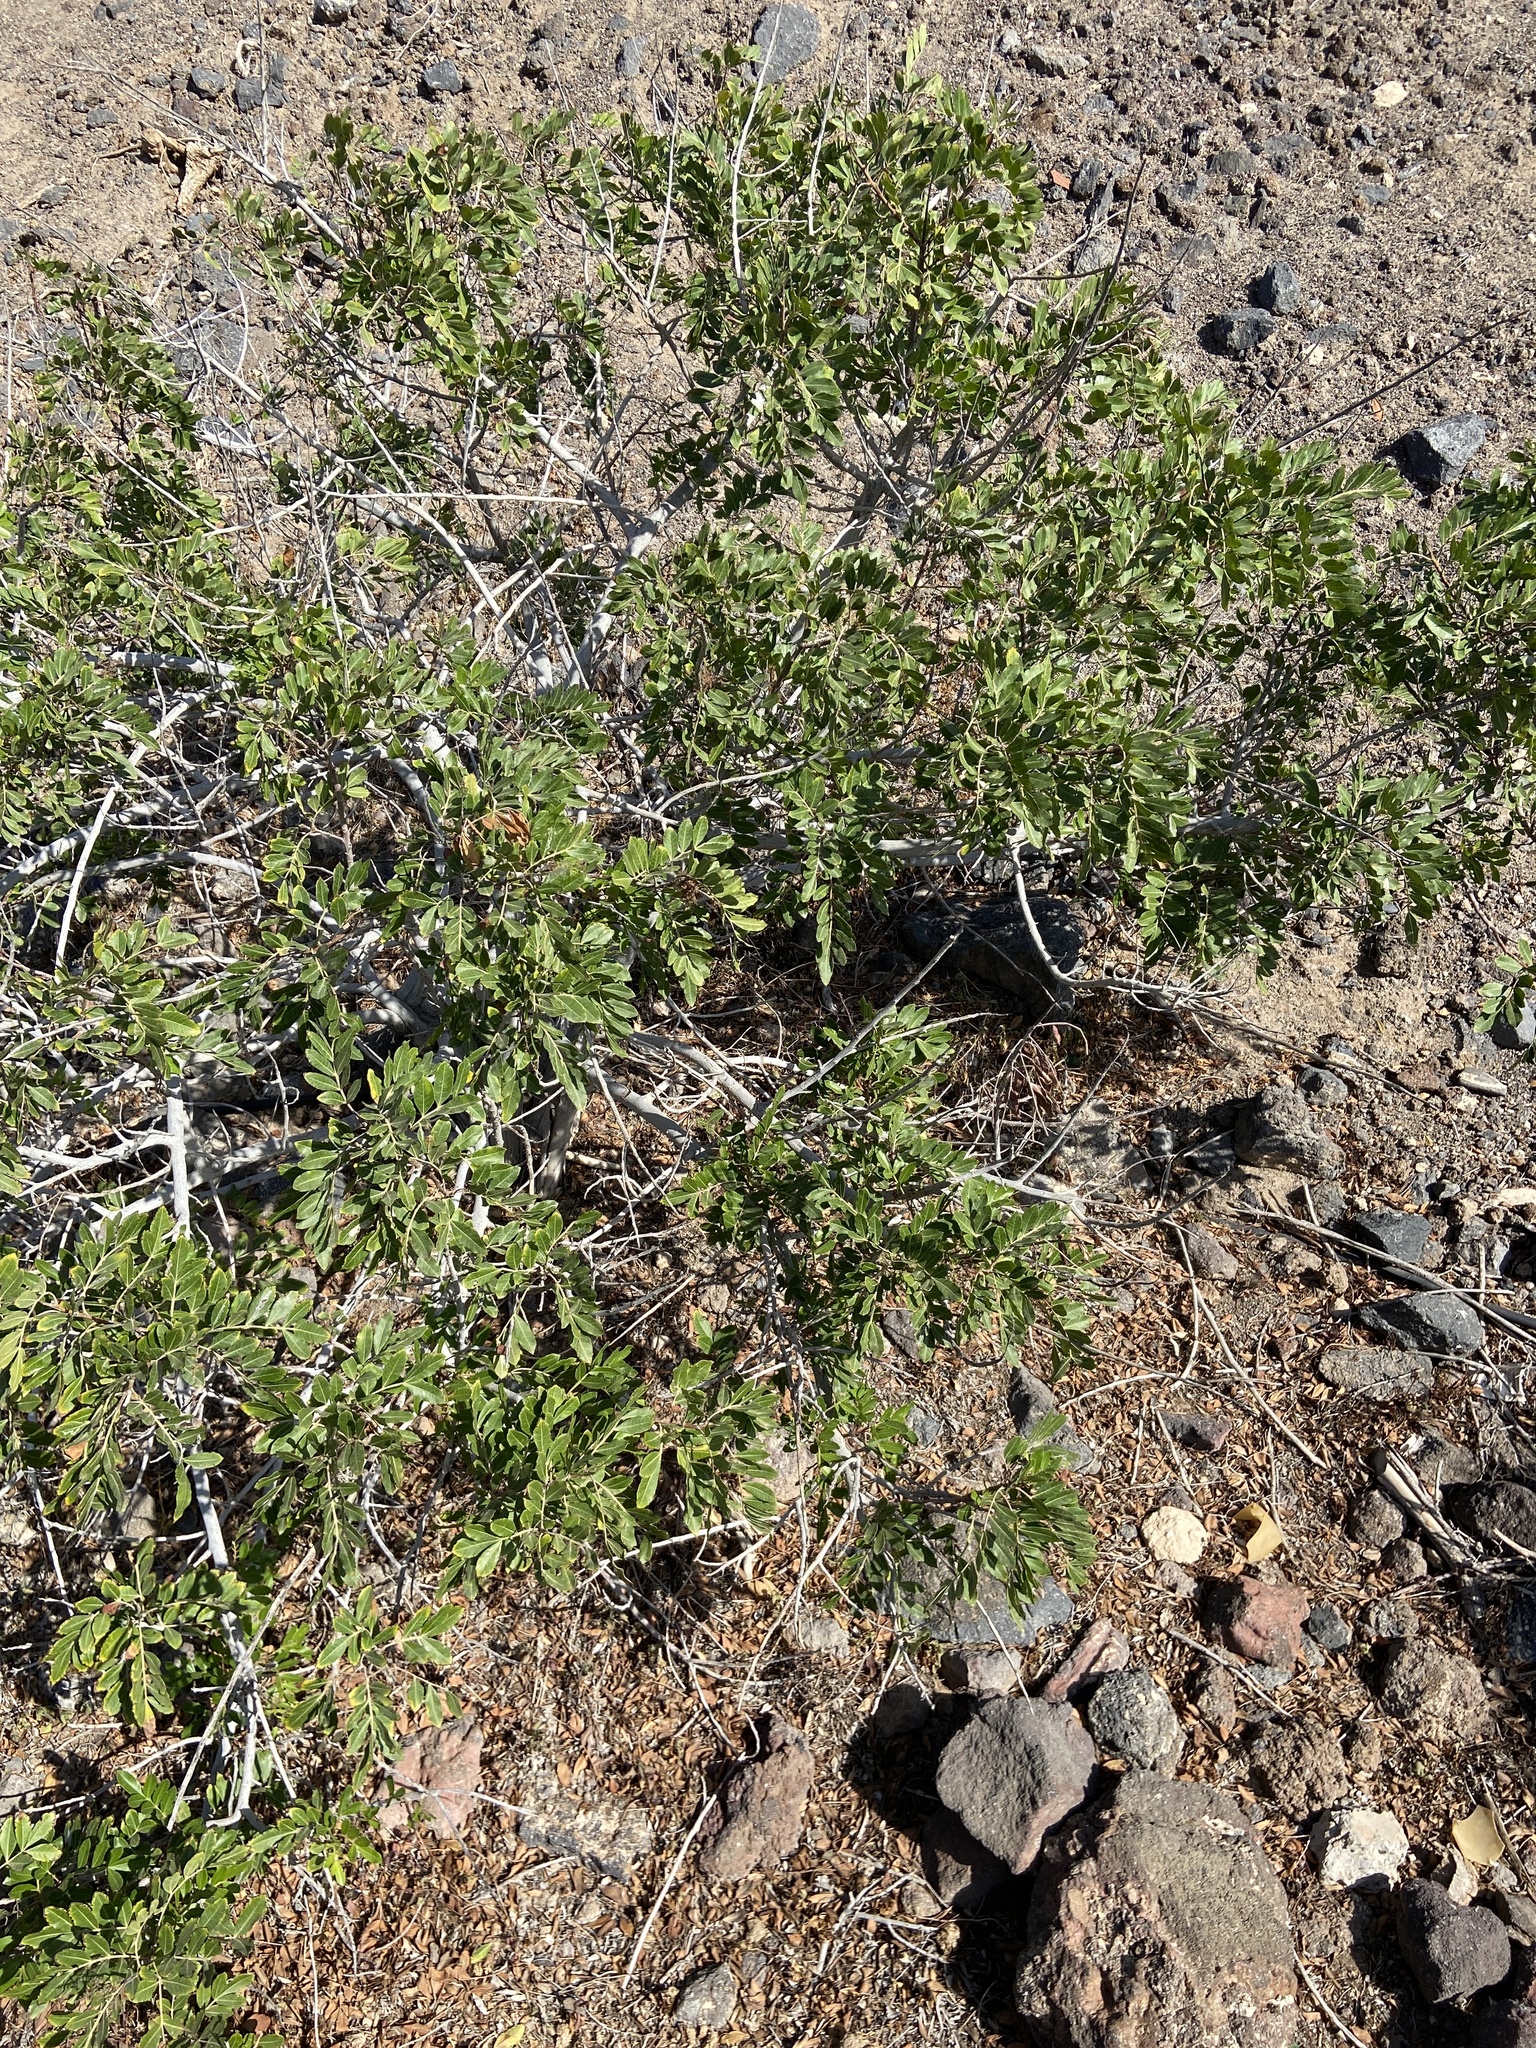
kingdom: Plantae
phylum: Tracheophyta
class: Magnoliopsida
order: Sapindales
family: Anacardiaceae
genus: Pistacia
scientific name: Pistacia atlantica
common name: Mt. atlas mastic tree
